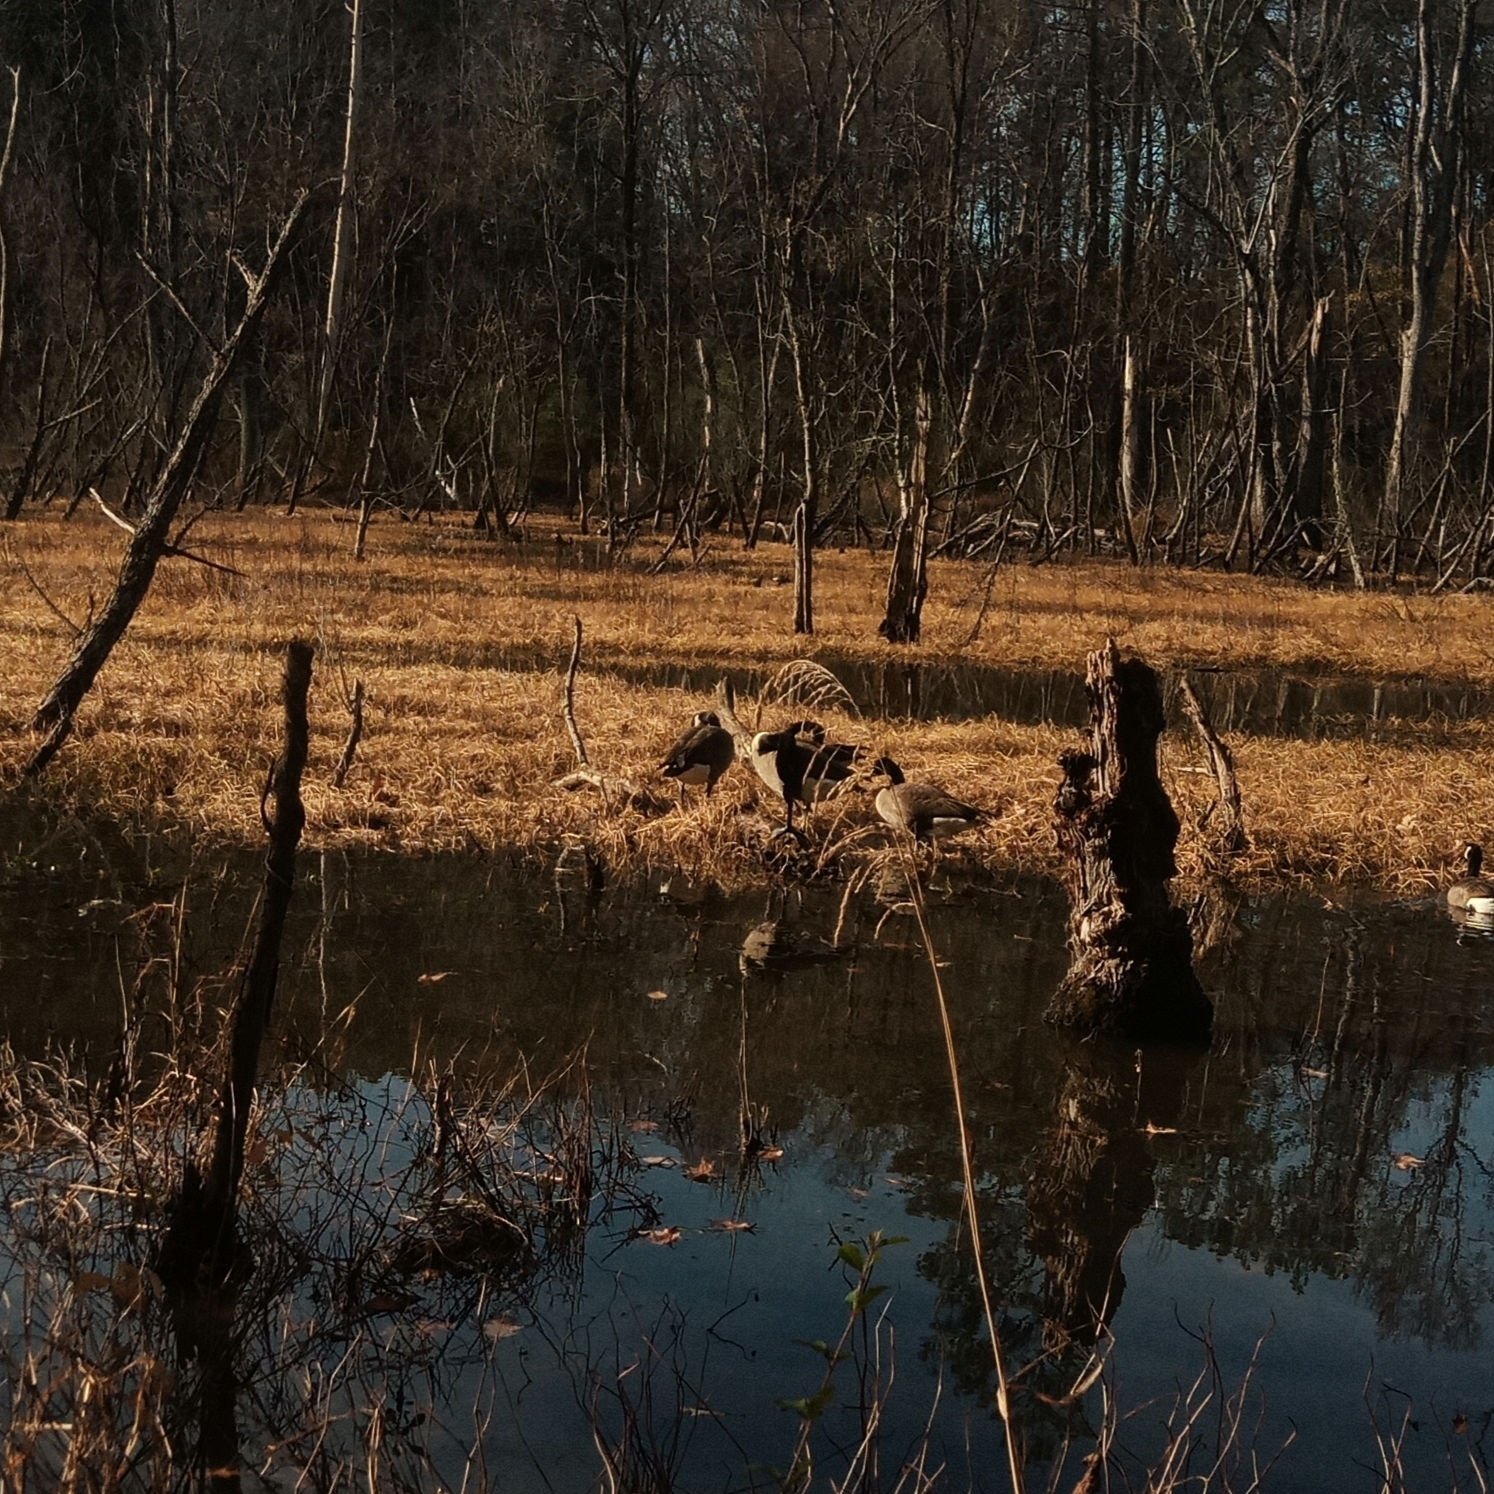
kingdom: Animalia
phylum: Chordata
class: Aves
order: Anseriformes
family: Anatidae
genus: Branta
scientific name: Branta canadensis
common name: Canada goose
